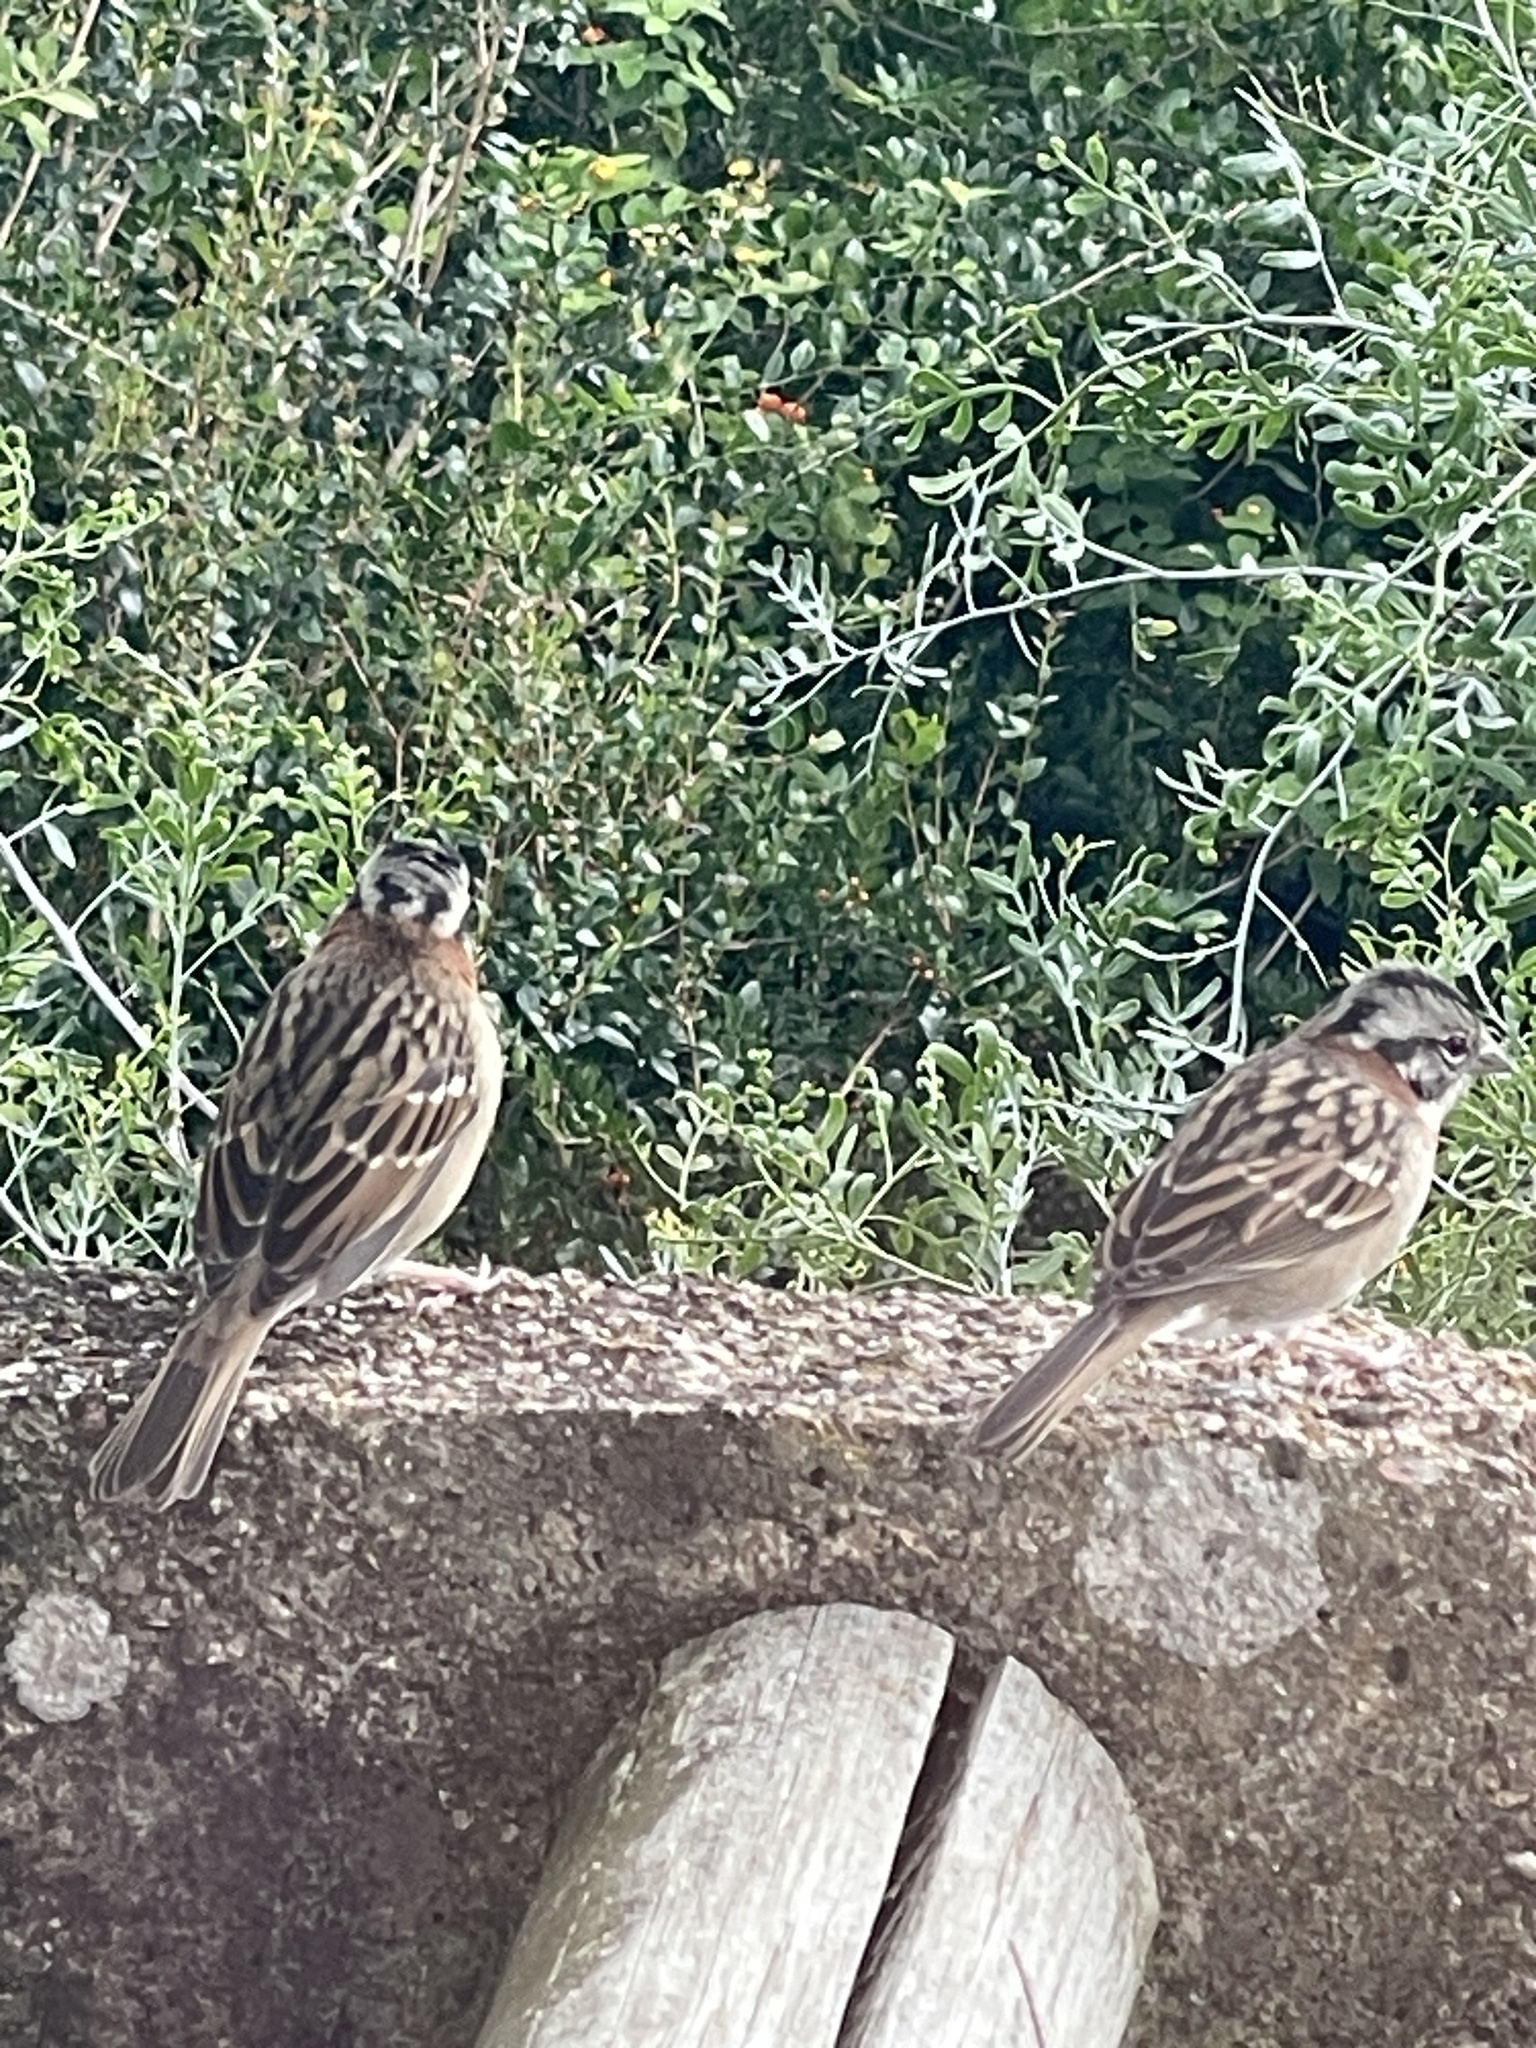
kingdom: Animalia
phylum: Chordata
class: Aves
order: Passeriformes
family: Passerellidae
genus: Zonotrichia
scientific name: Zonotrichia capensis
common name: Rufous-collared sparrow
